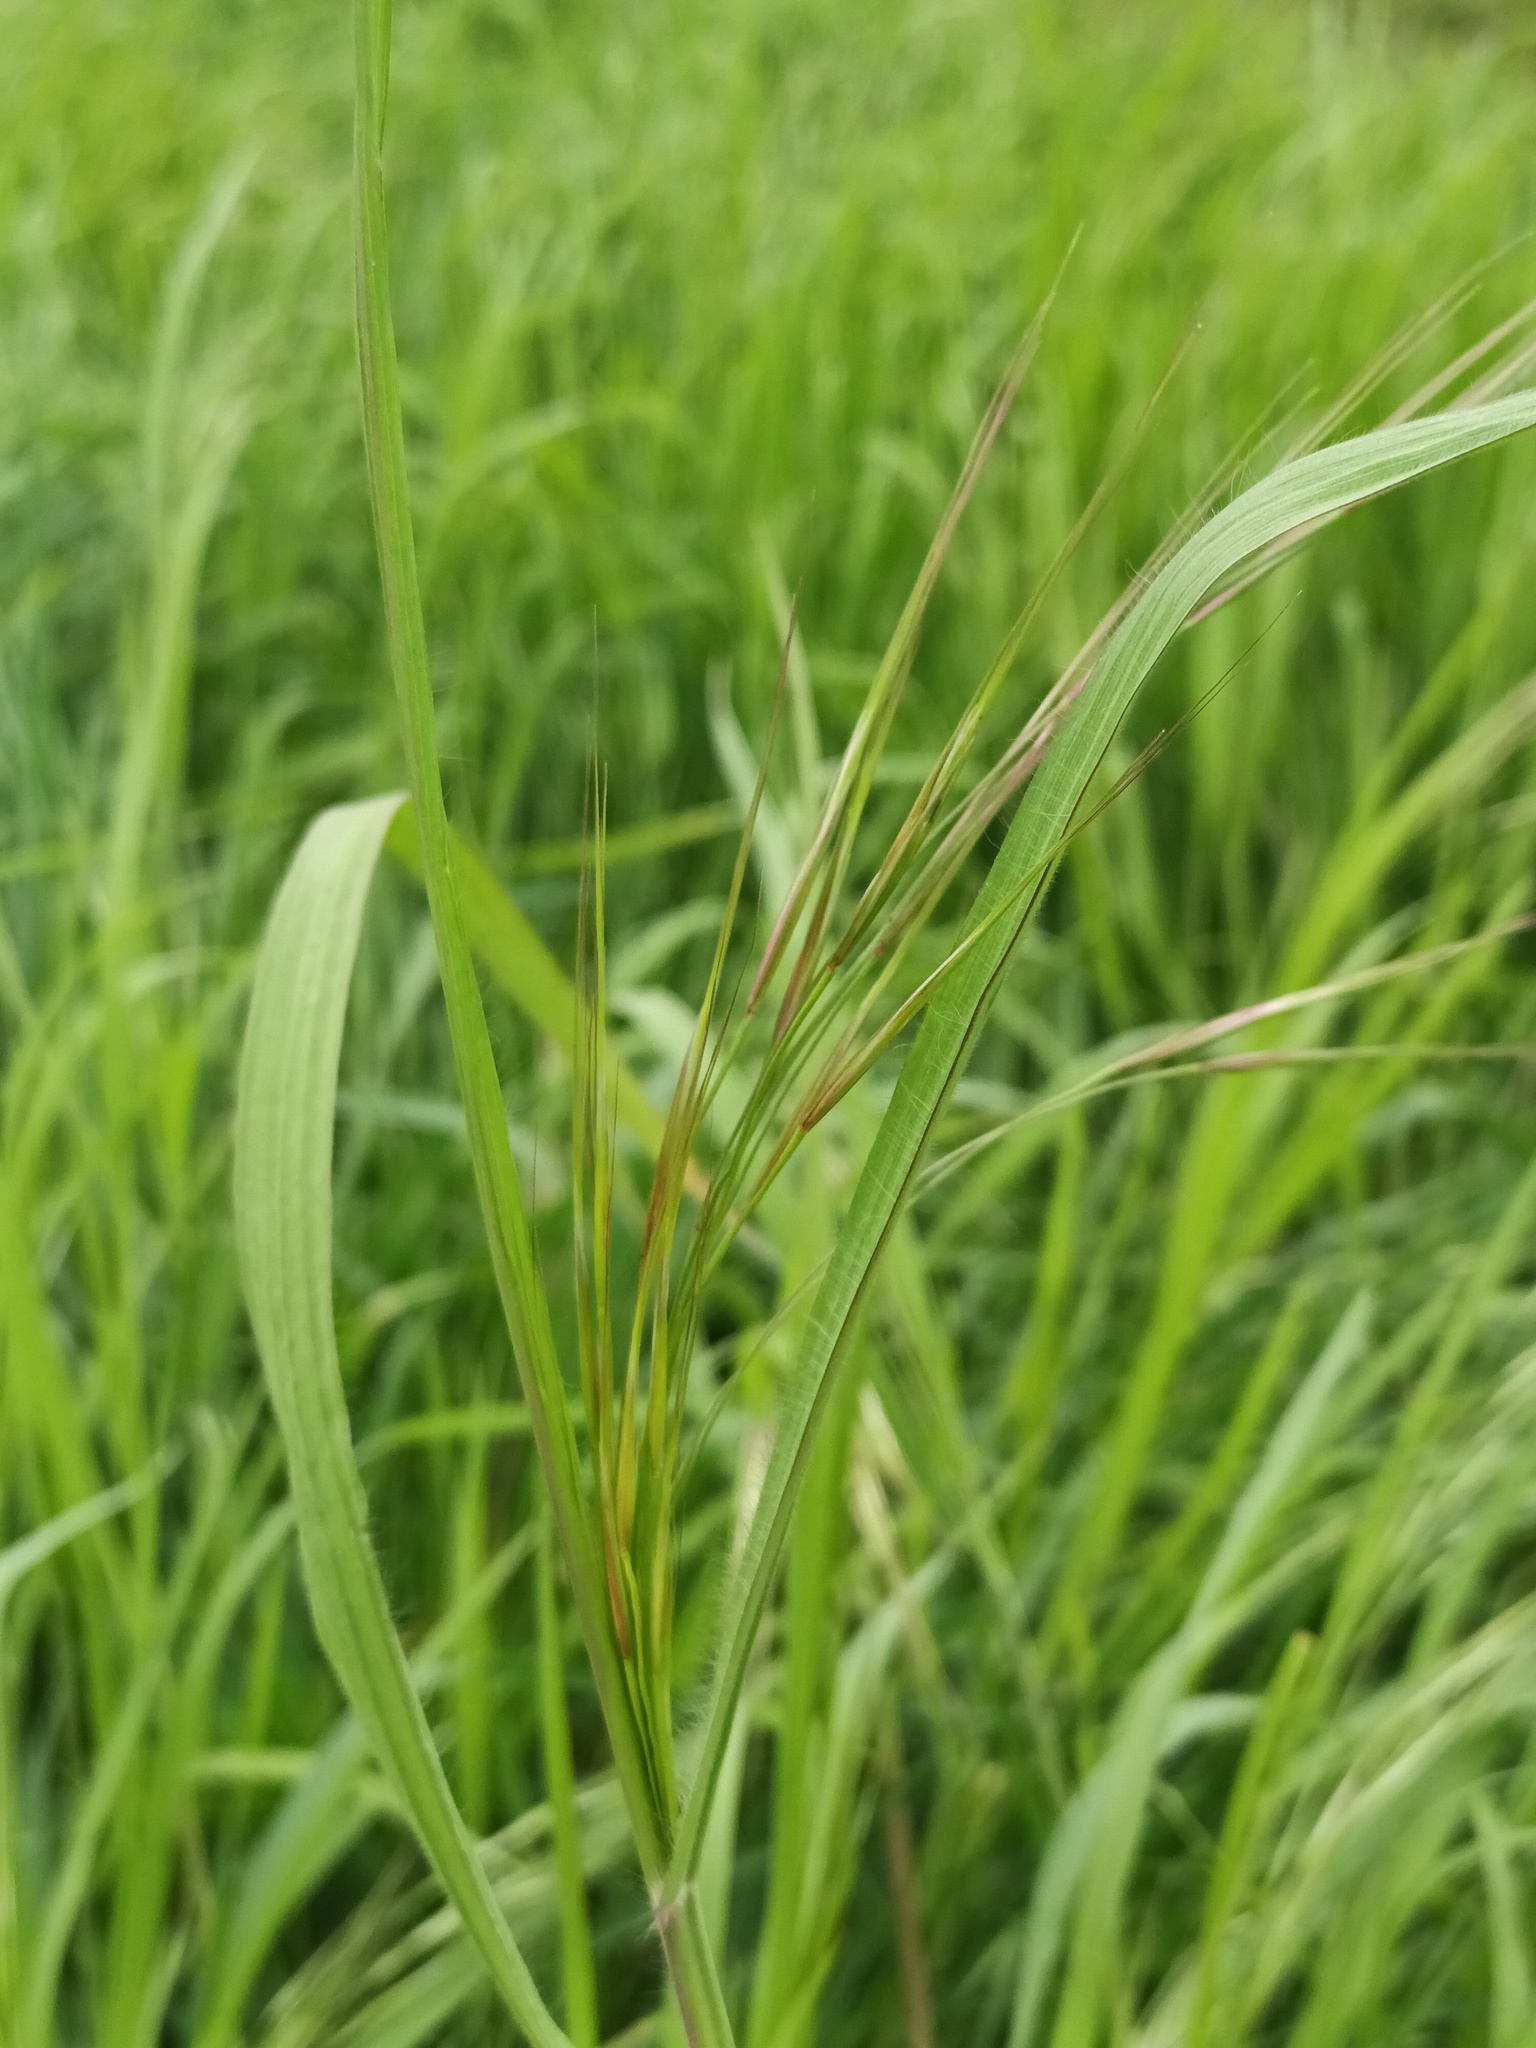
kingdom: Plantae
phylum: Tracheophyta
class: Liliopsida
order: Poales
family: Poaceae
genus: Bromus
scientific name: Bromus sterilis
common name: Poverty brome
